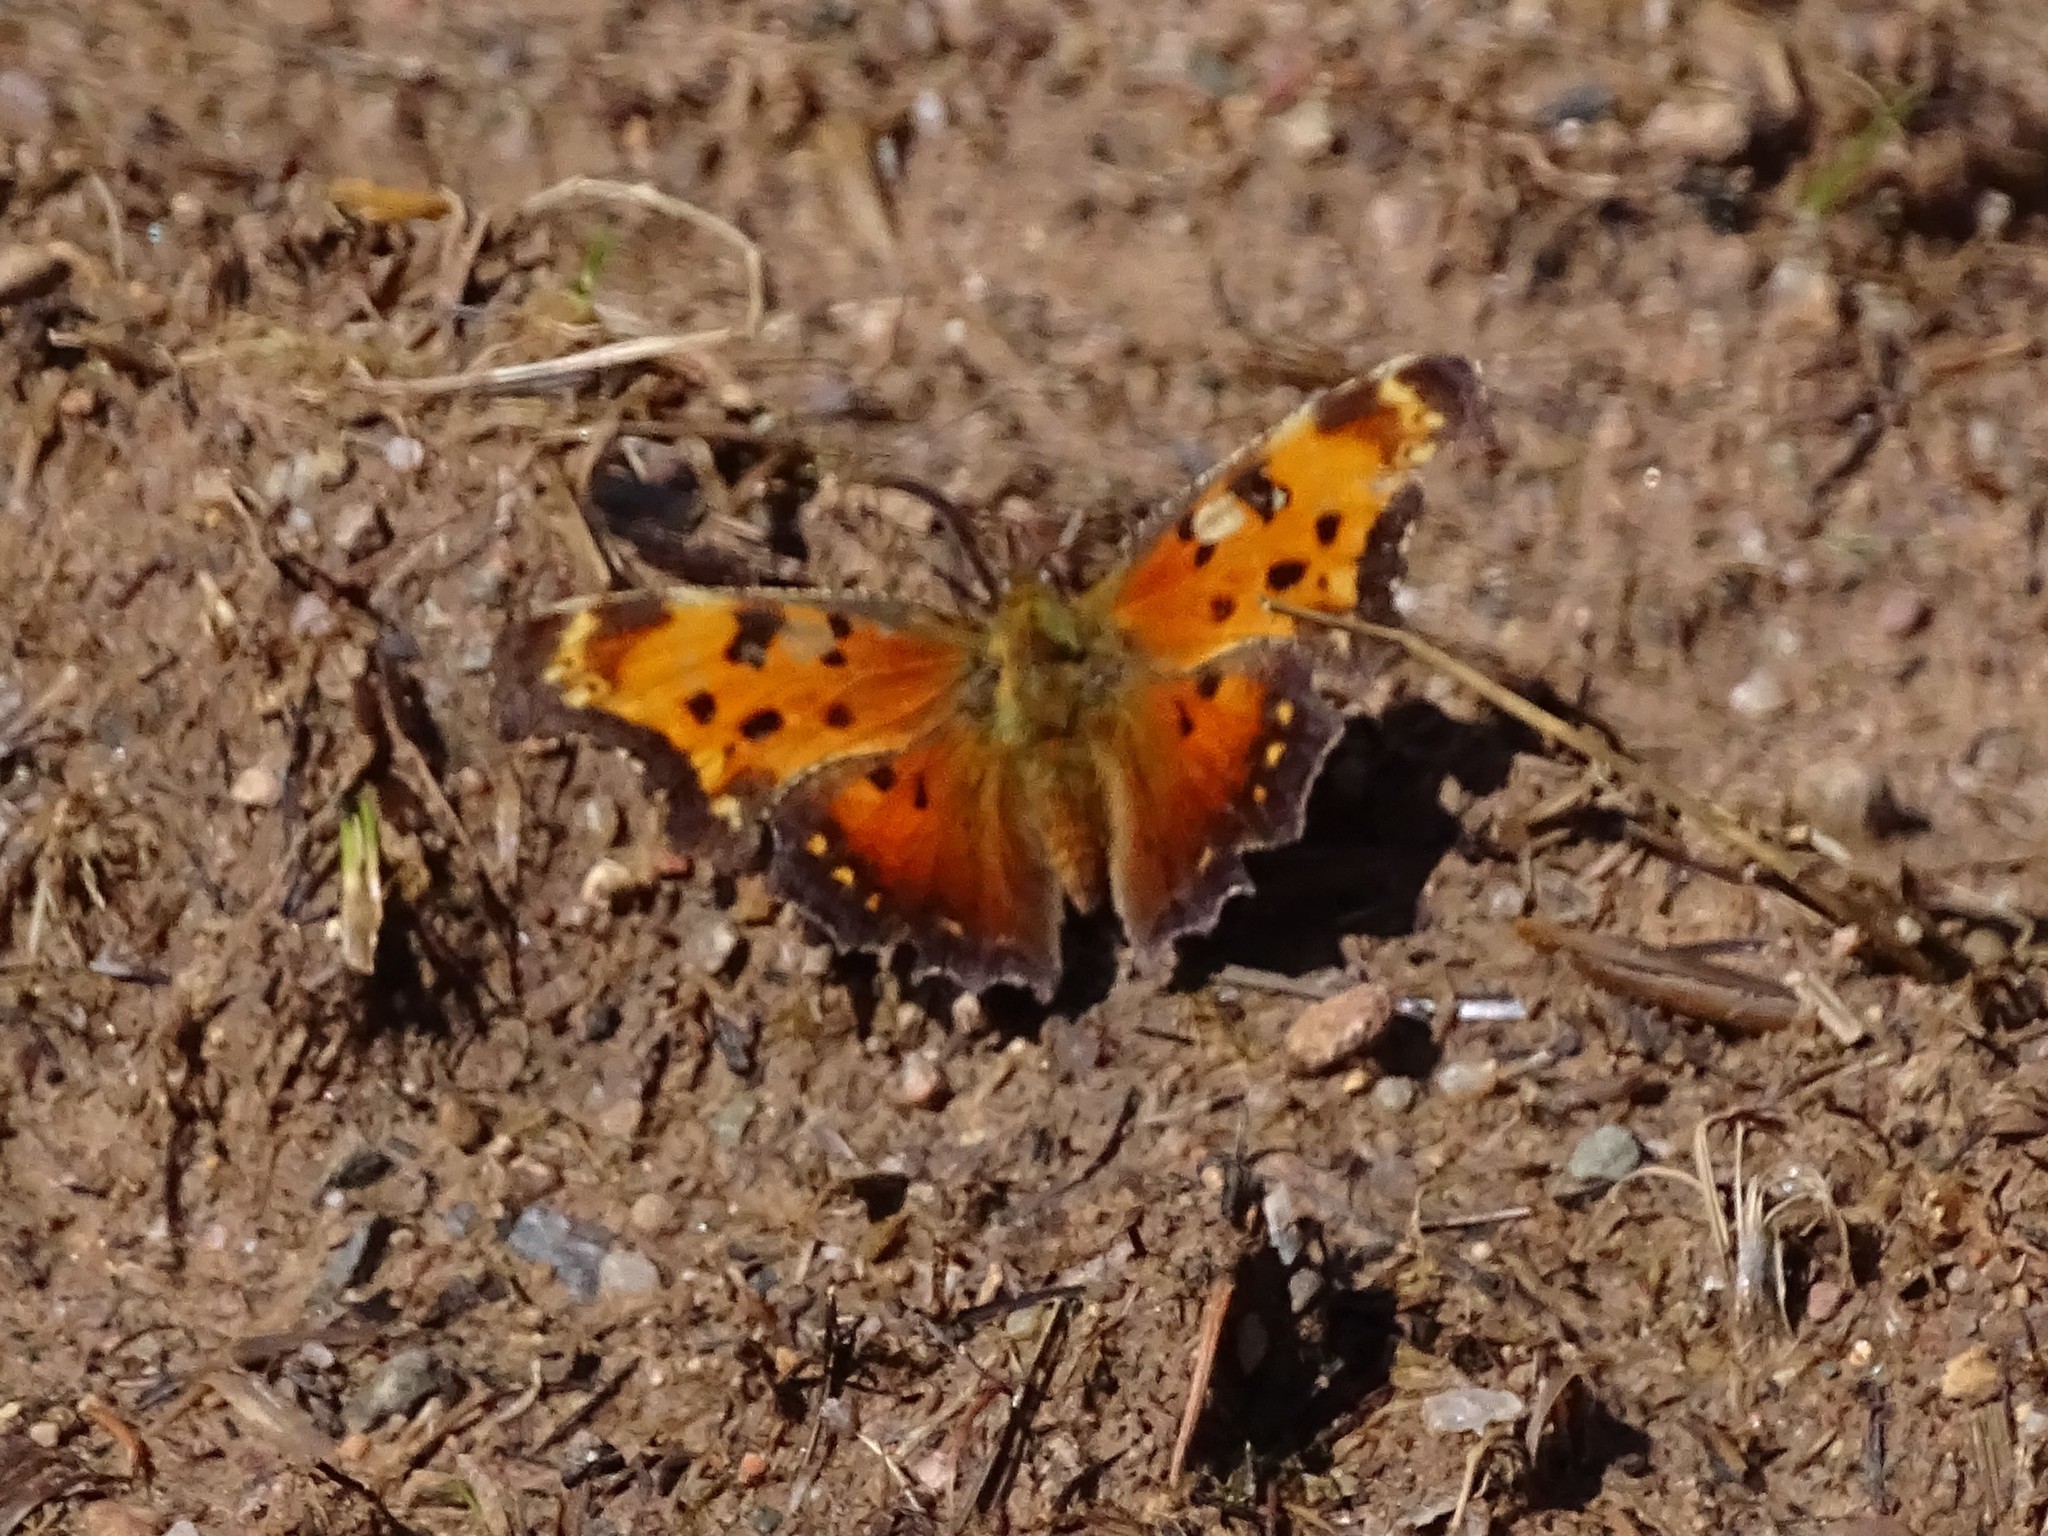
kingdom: Animalia
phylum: Arthropoda
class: Insecta
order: Lepidoptera
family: Nymphalidae
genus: Polygonia
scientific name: Polygonia progne
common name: Gray comma
